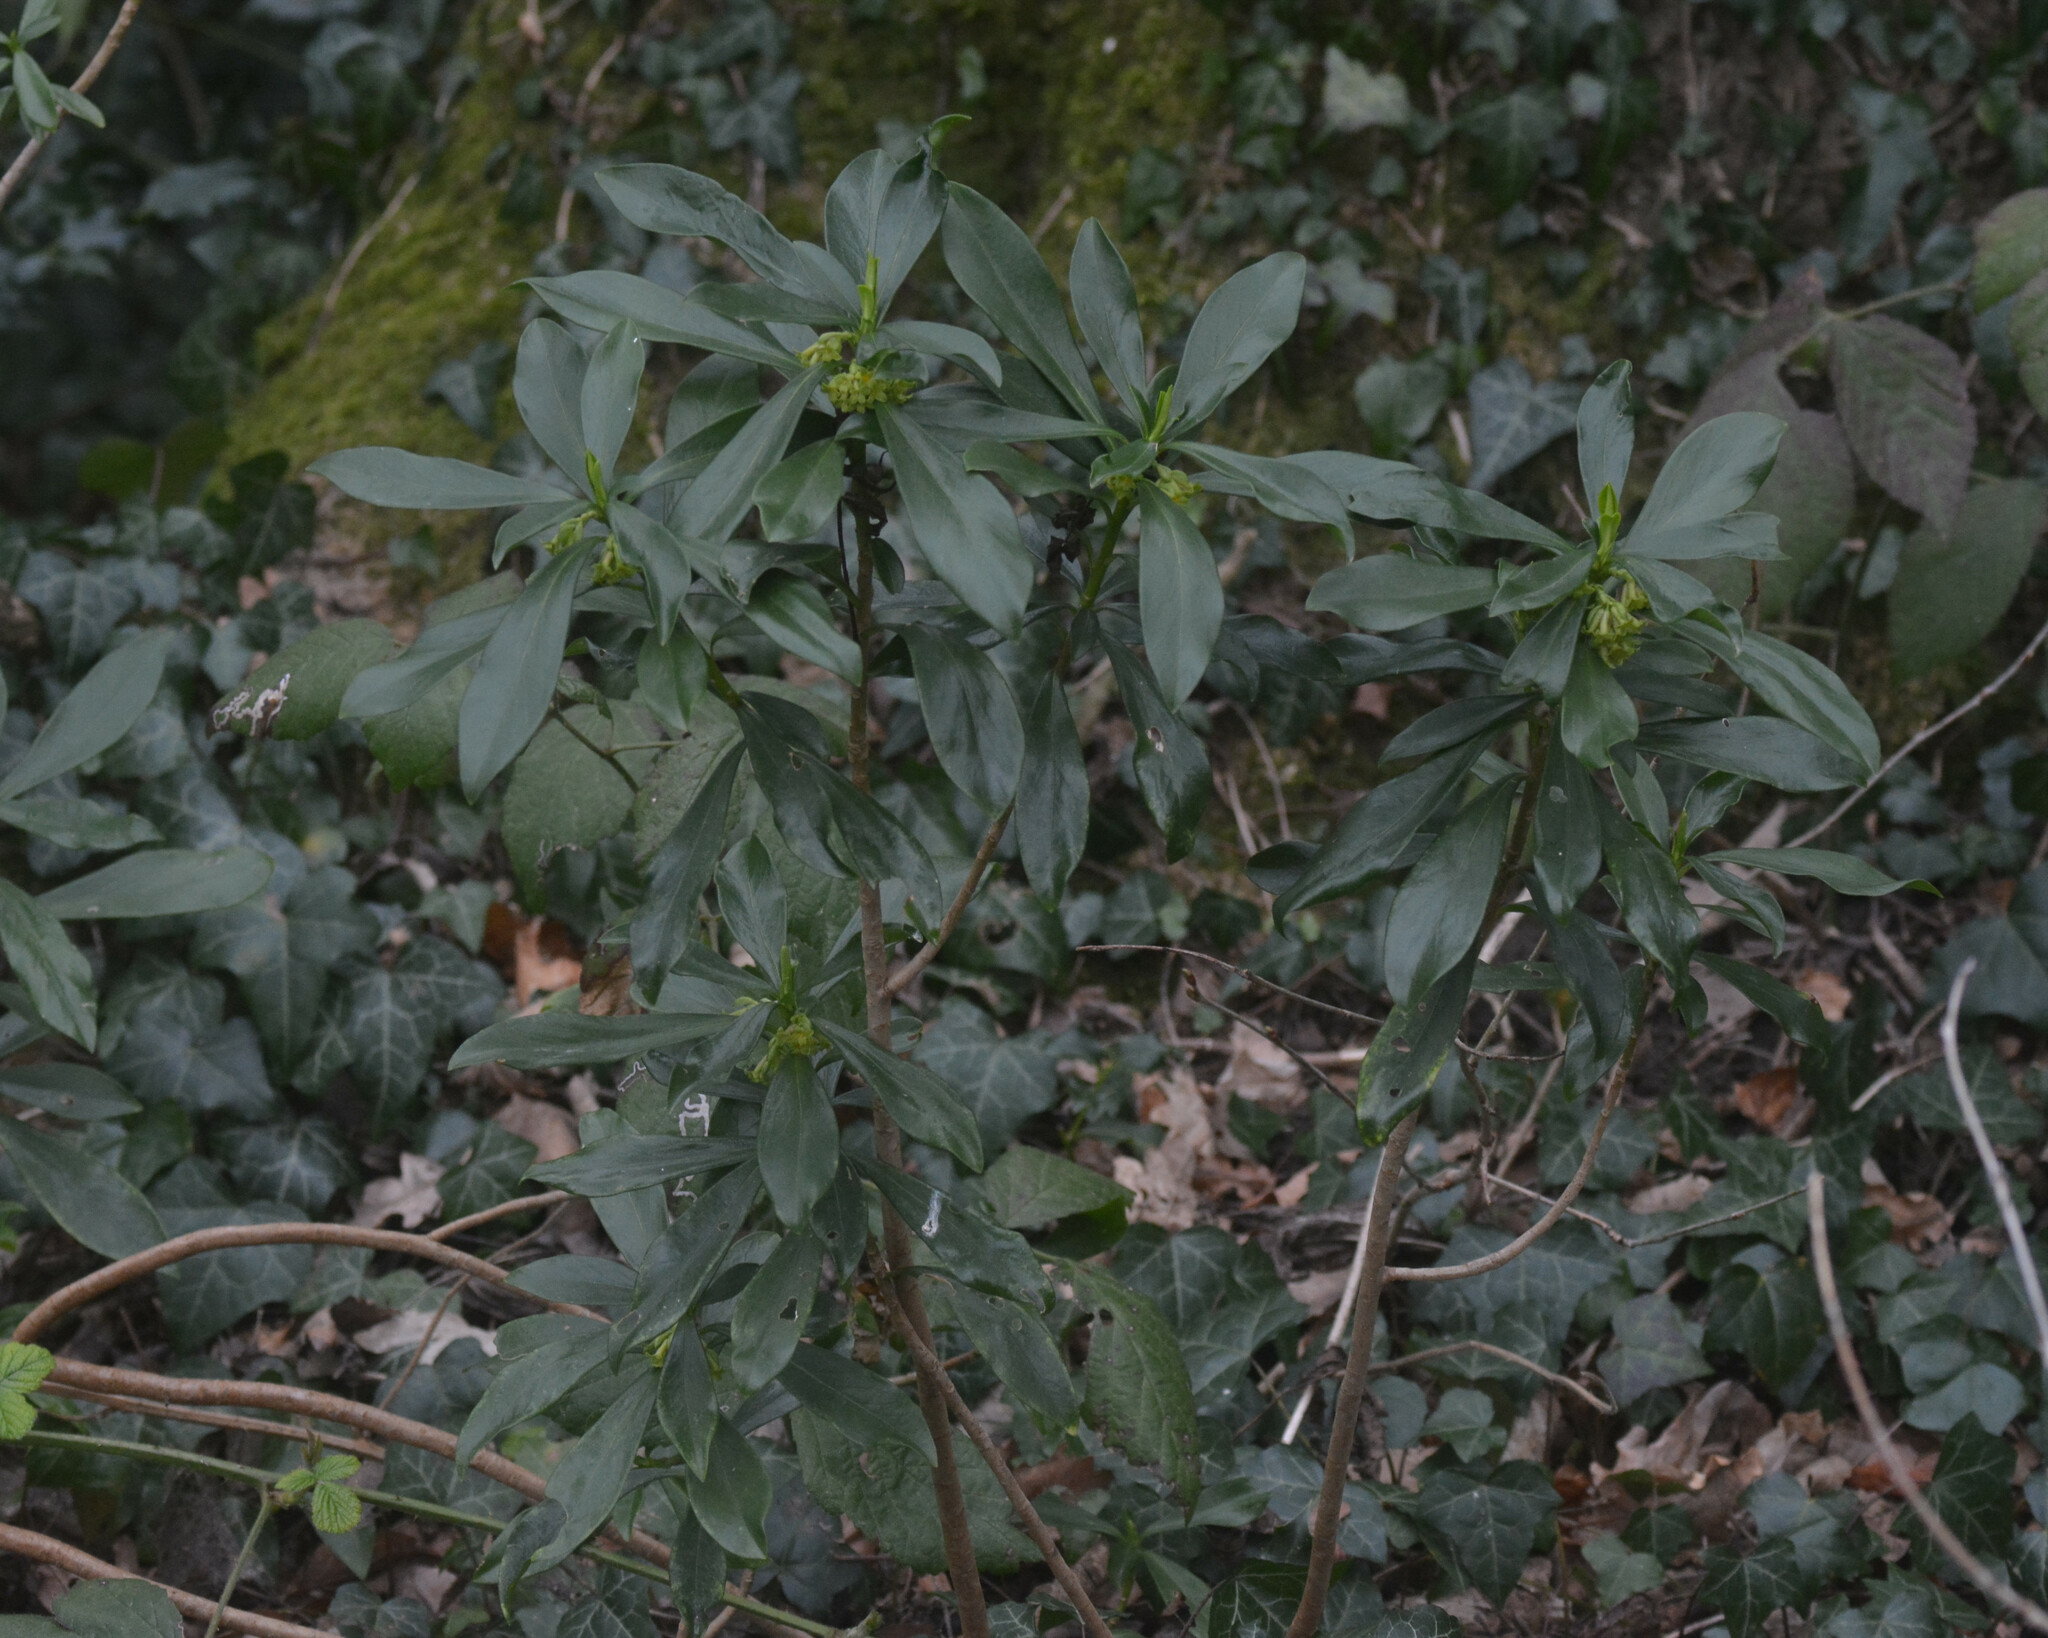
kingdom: Plantae
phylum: Tracheophyta
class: Magnoliopsida
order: Malvales
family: Thymelaeaceae
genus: Daphne
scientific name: Daphne laureola
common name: Spurge-laurel
